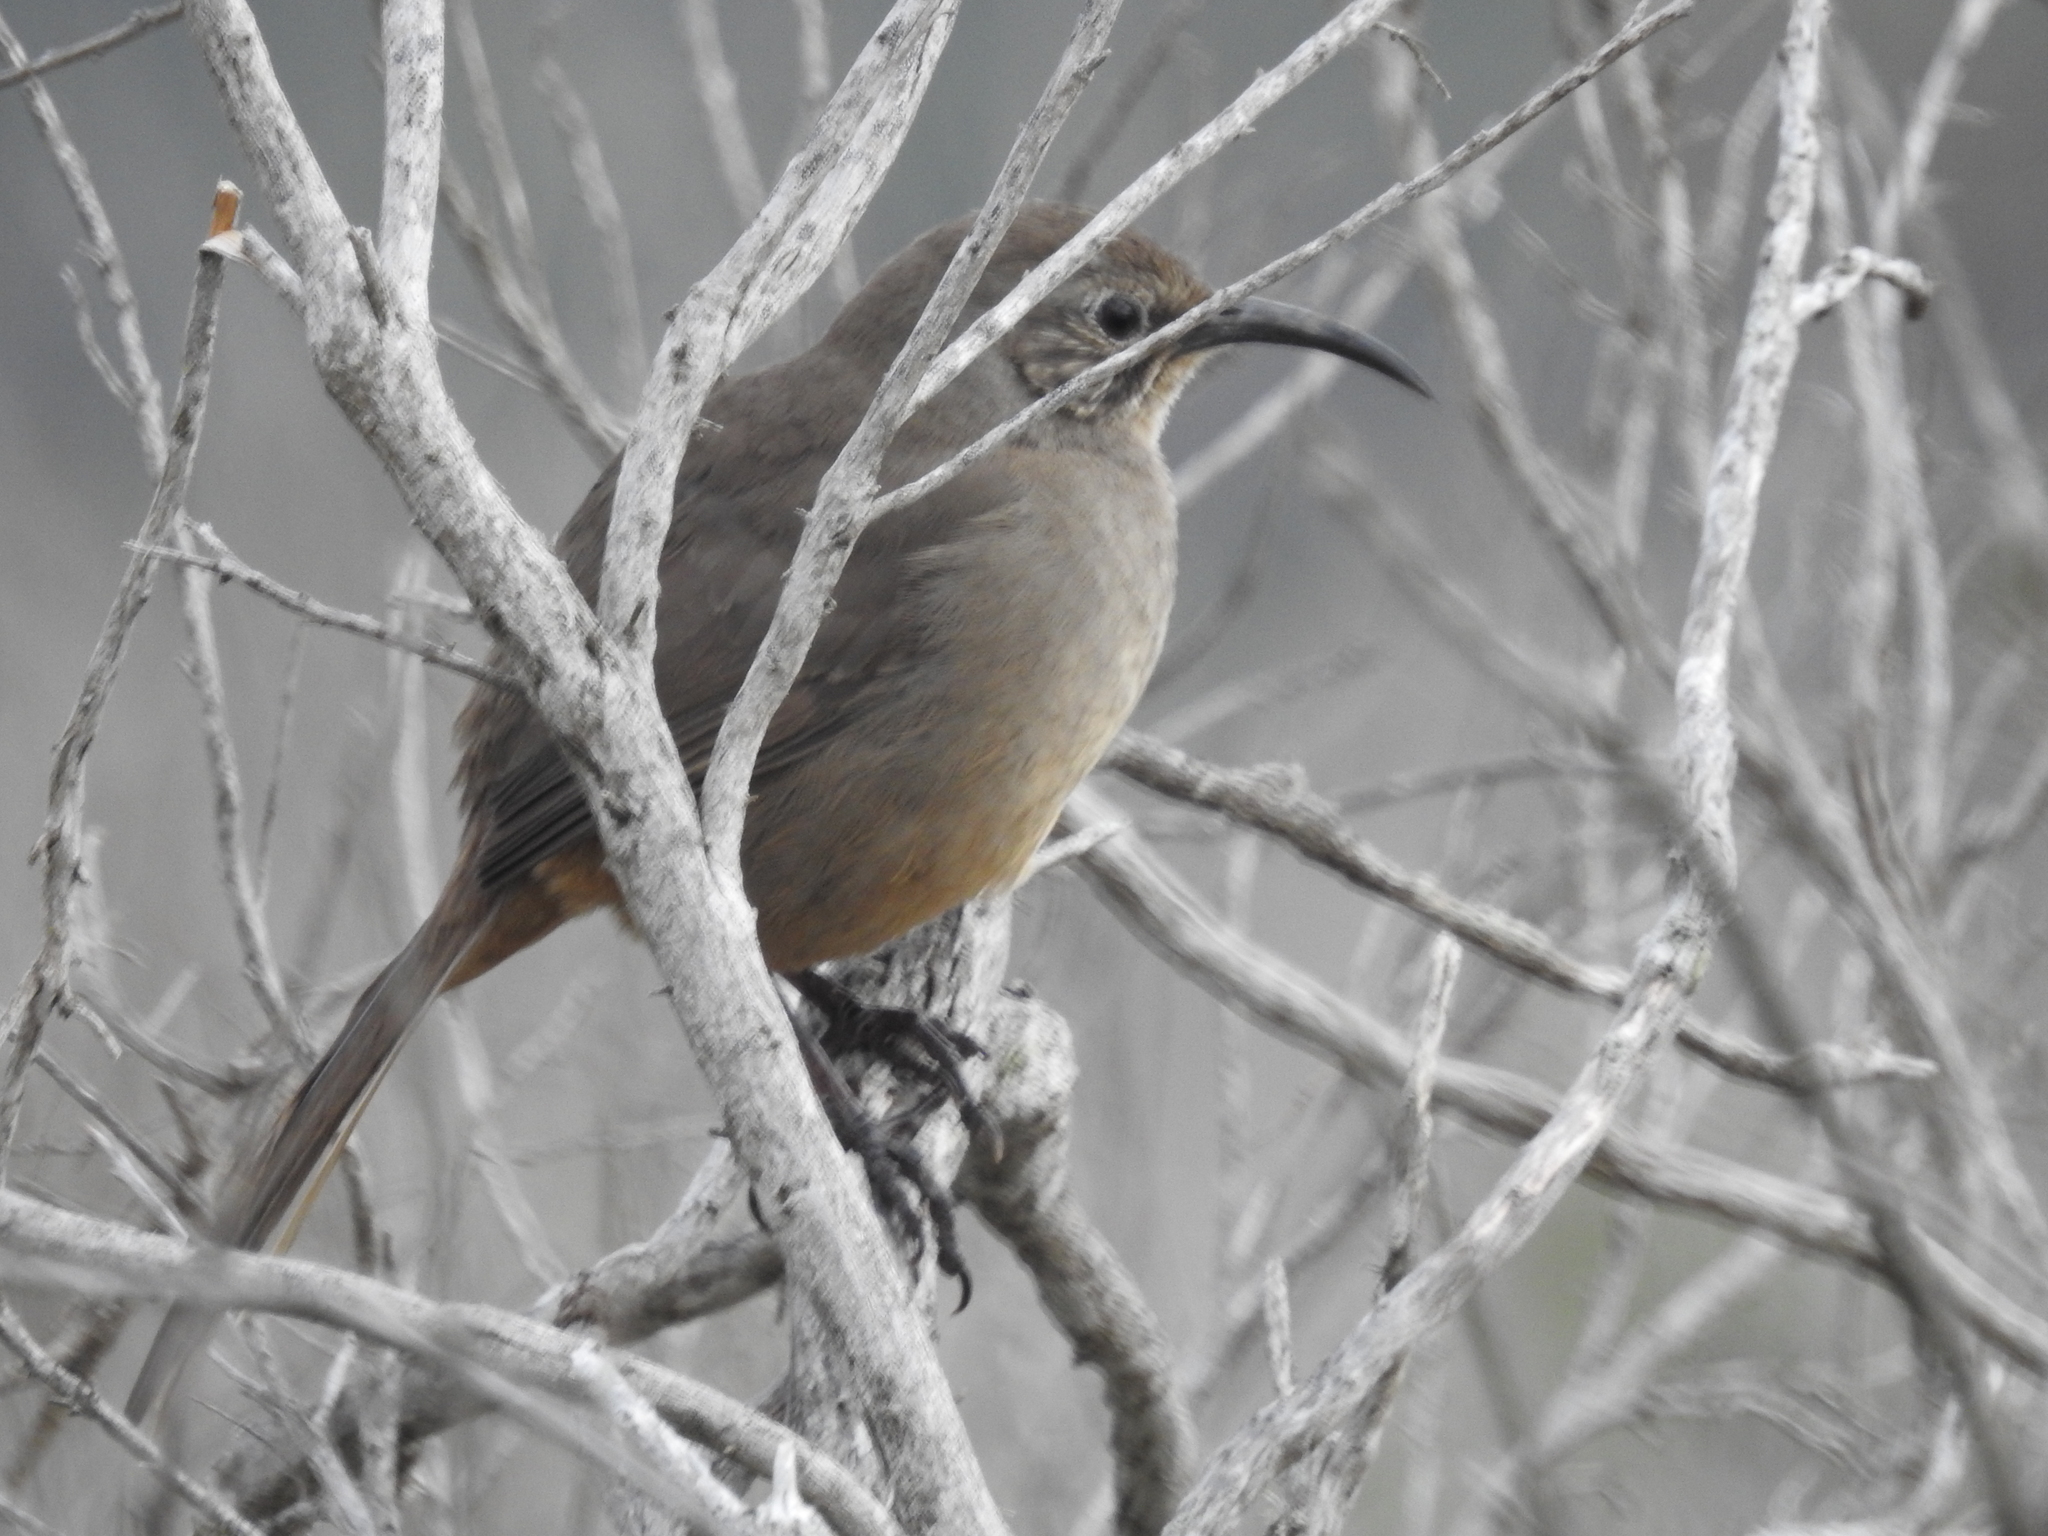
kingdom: Animalia
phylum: Chordata
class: Aves
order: Passeriformes
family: Mimidae
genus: Toxostoma
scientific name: Toxostoma redivivum
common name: California thrasher
